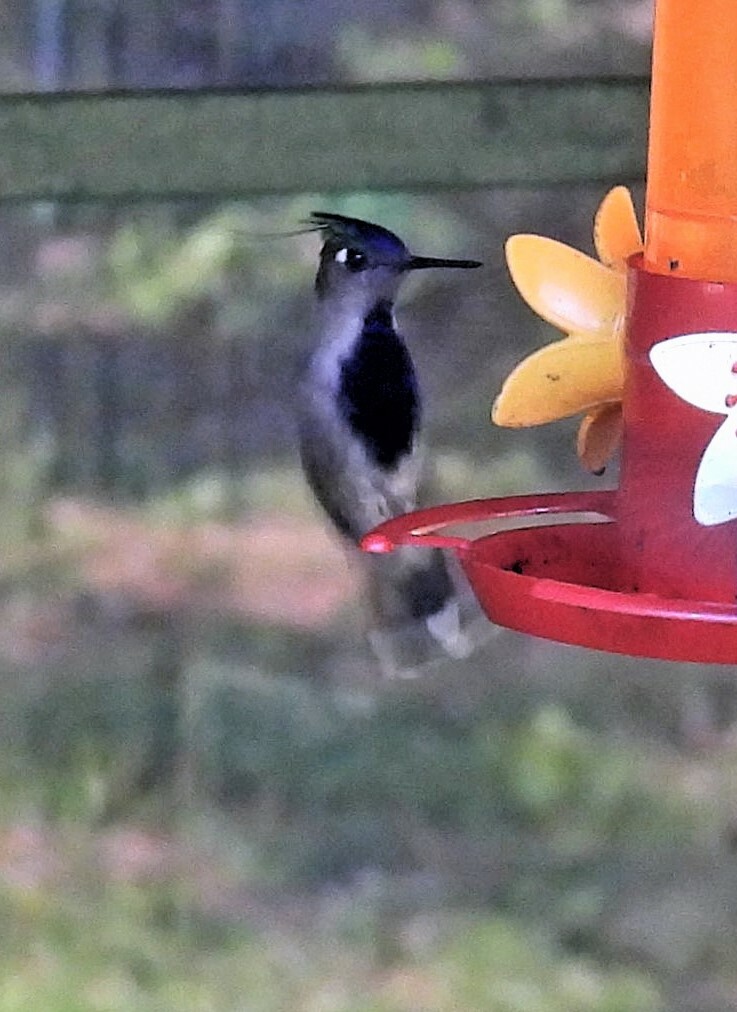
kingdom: Animalia
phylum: Chordata
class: Aves
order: Apodiformes
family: Trochilidae
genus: Stephanoxis
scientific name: Stephanoxis loddigesii
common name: Purple-crowned plovercrest
